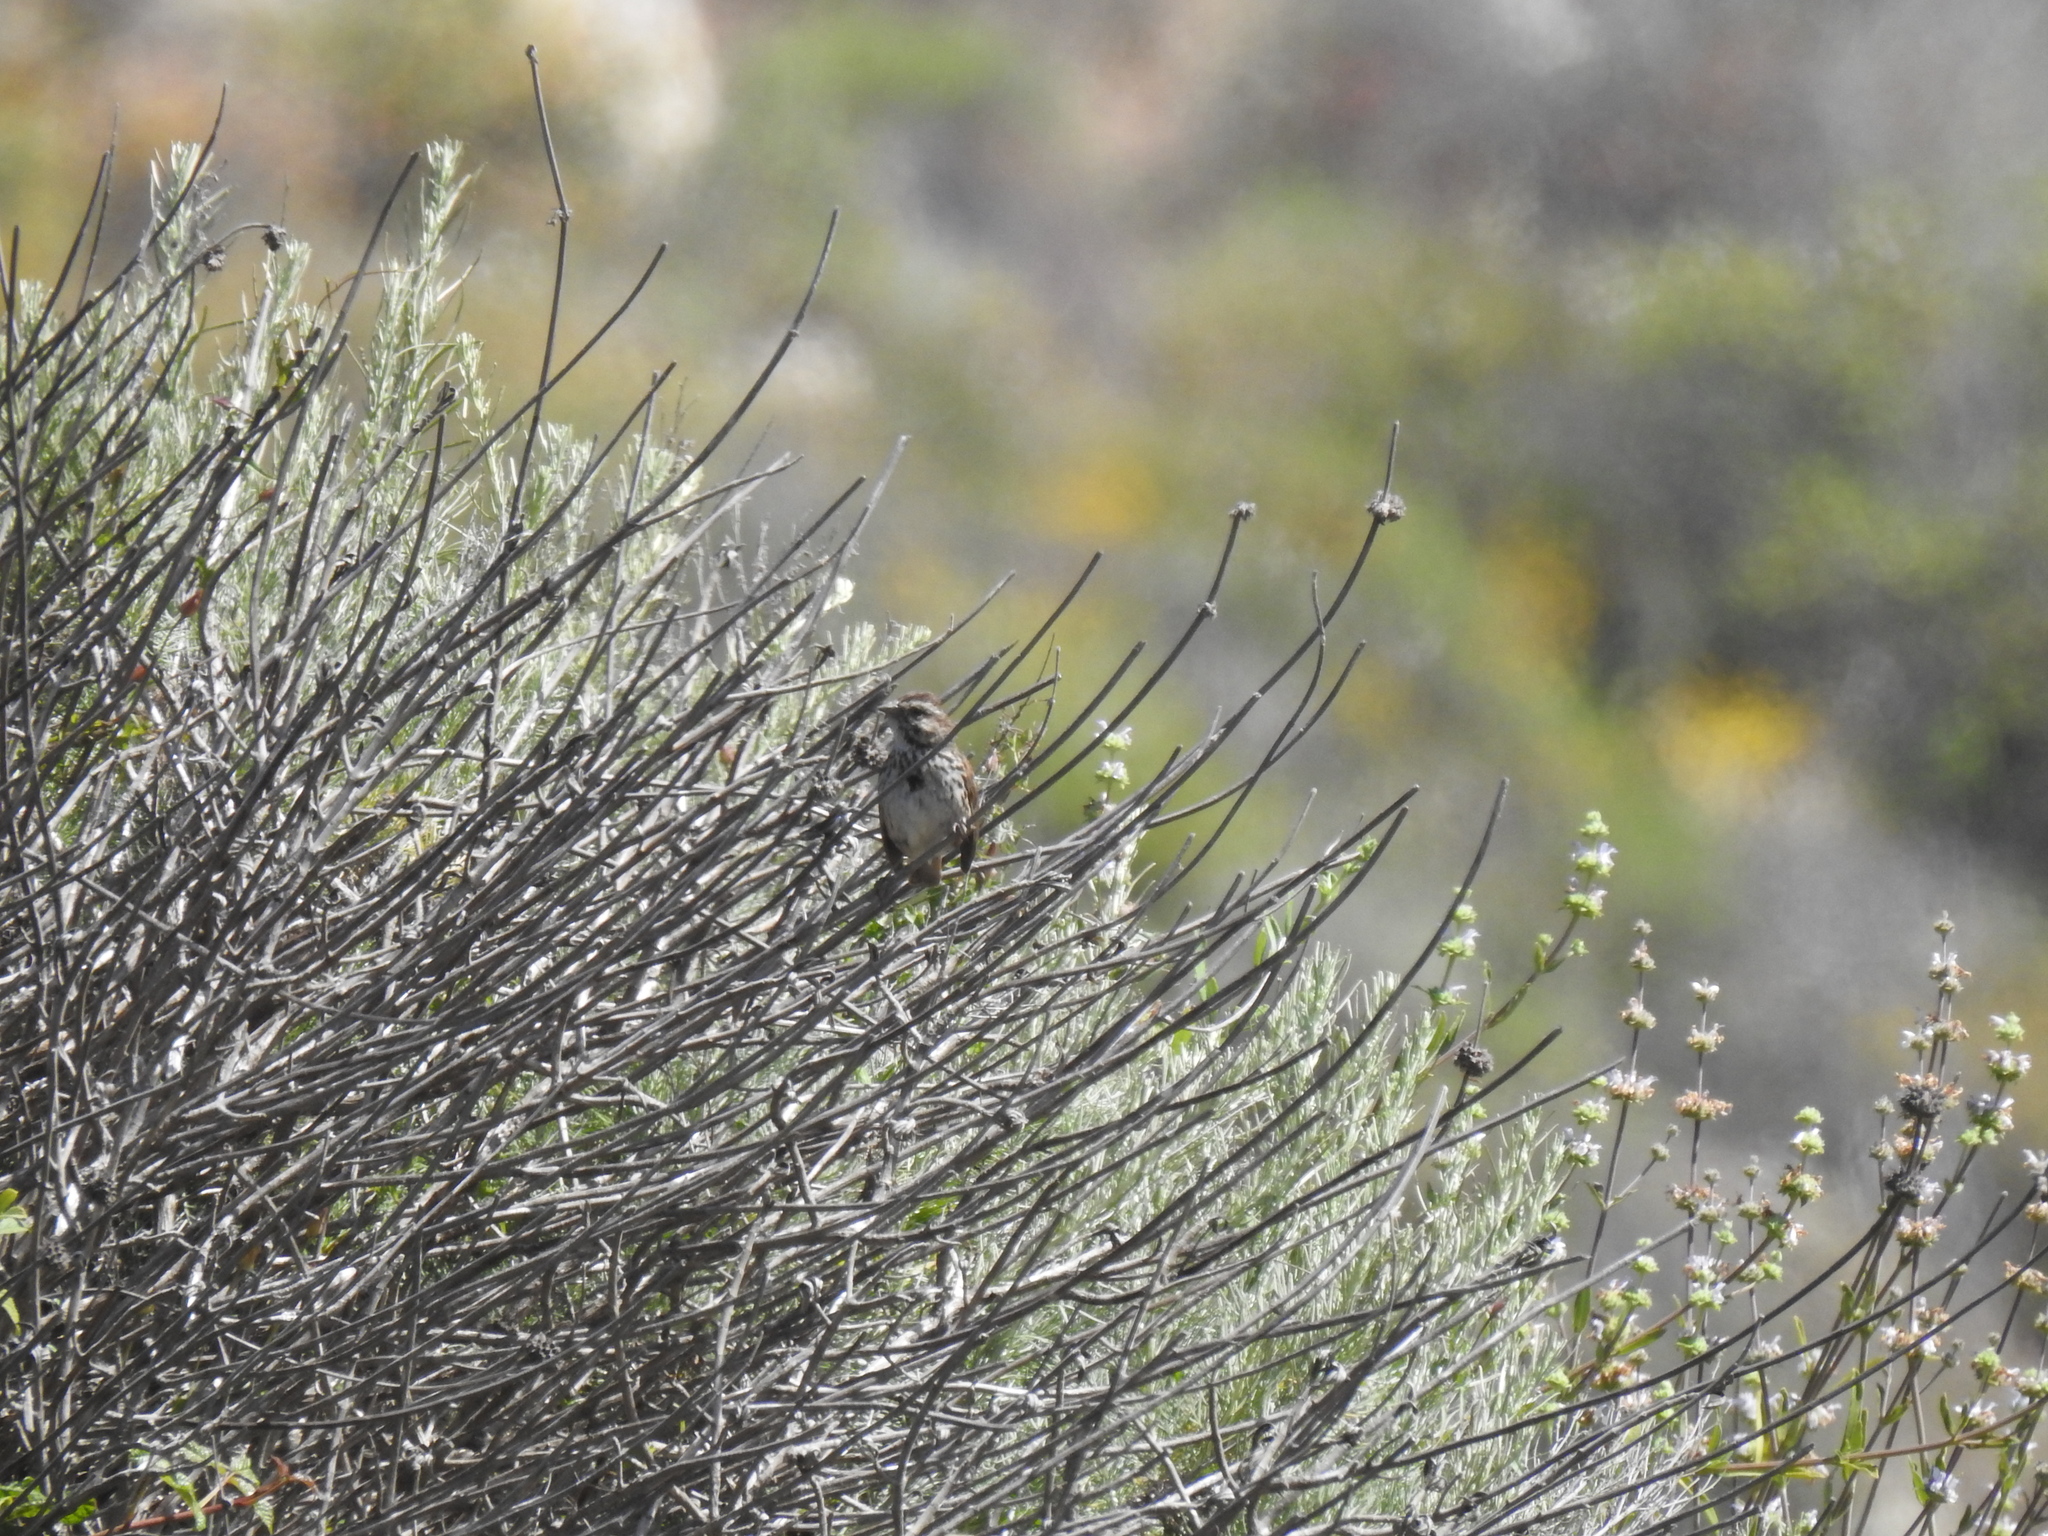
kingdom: Animalia
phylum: Chordata
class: Aves
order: Passeriformes
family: Passerellidae
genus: Melospiza
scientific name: Melospiza melodia
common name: Song sparrow
